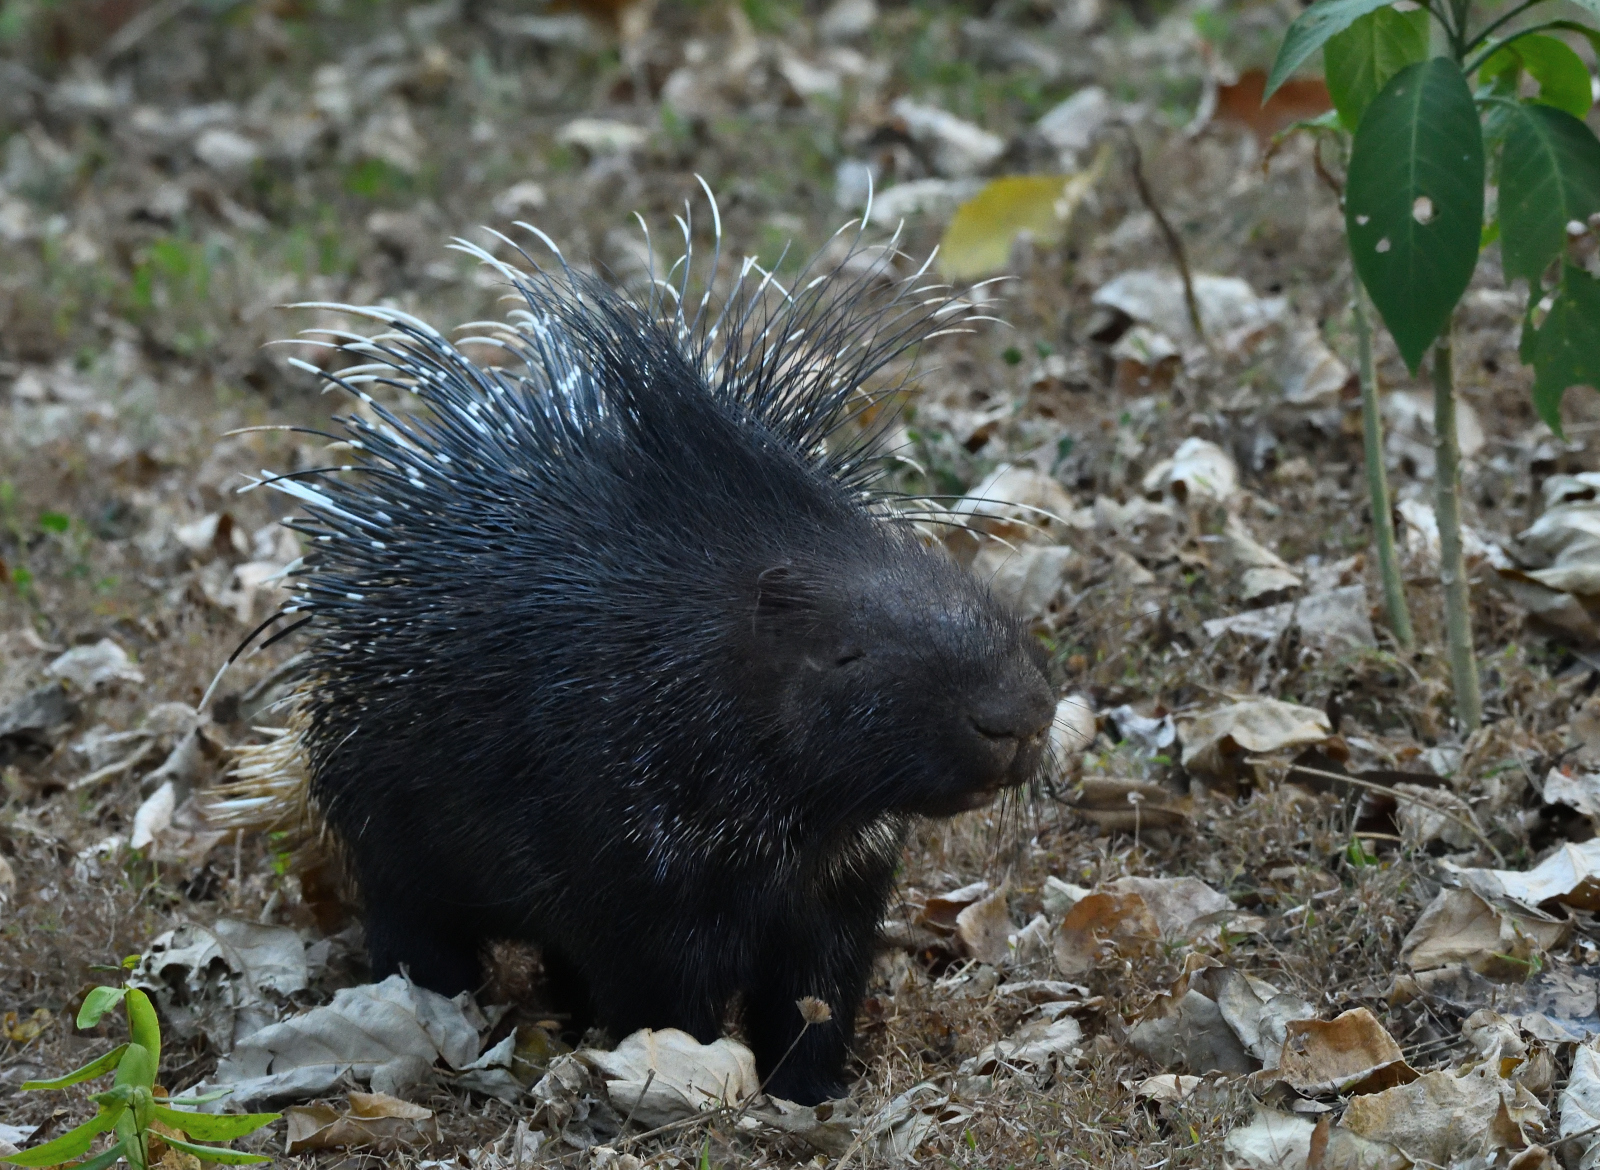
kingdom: Animalia
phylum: Chordata
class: Mammalia
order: Rodentia
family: Hystricidae
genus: Hystrix
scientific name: Hystrix indica
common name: Indian crested porcupine
